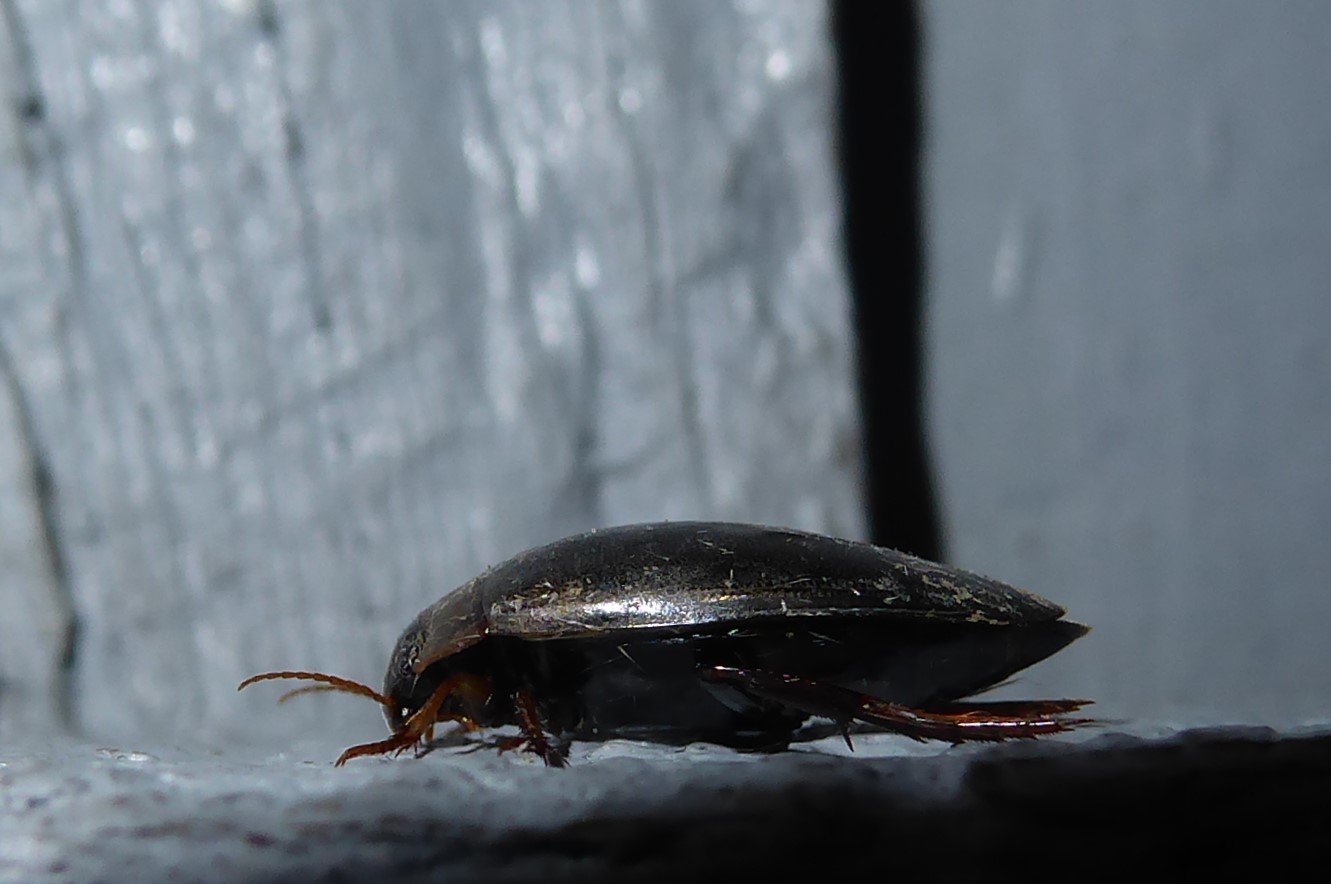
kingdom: Animalia
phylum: Arthropoda
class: Insecta
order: Coleoptera
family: Dytiscidae
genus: Rhantus
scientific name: Rhantus suturalis
